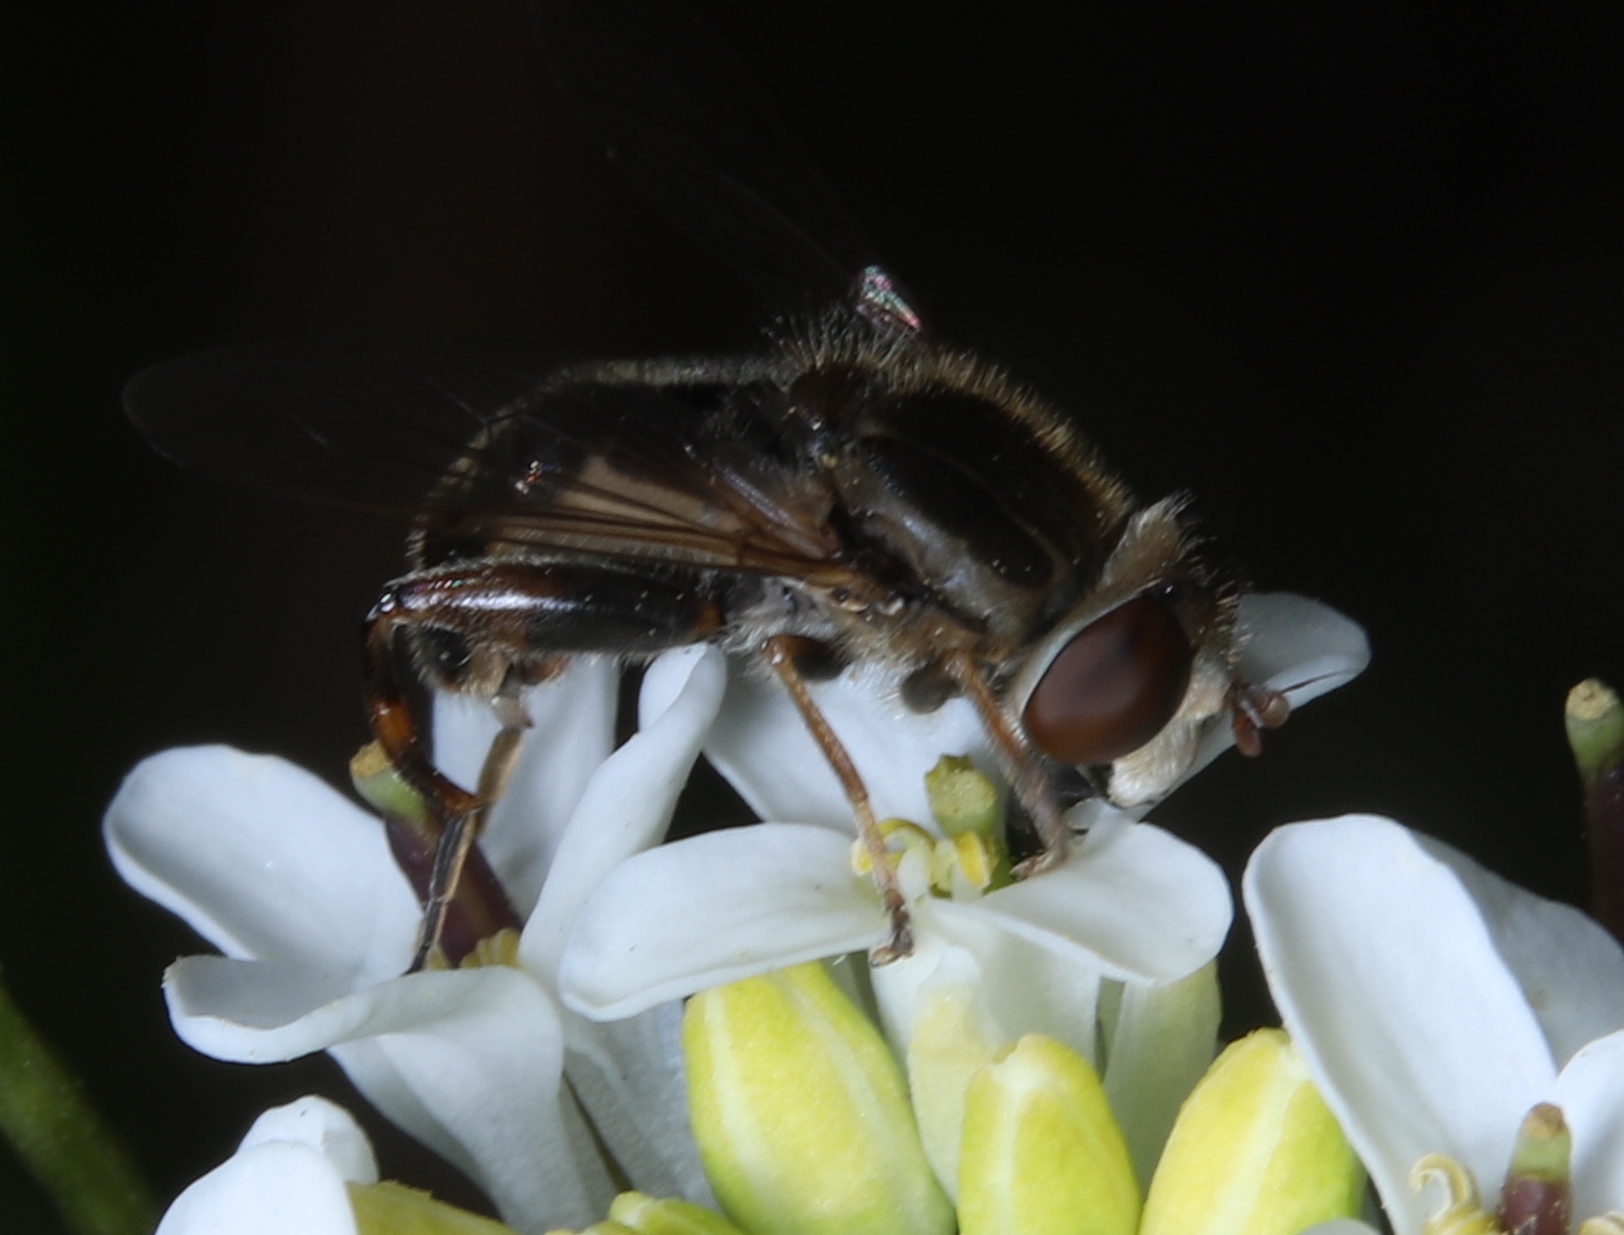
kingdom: Animalia
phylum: Arthropoda
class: Insecta
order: Diptera
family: Syrphidae
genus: Anasimyia
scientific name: Anasimyia bilinearis
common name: Two-lined swamp fly
